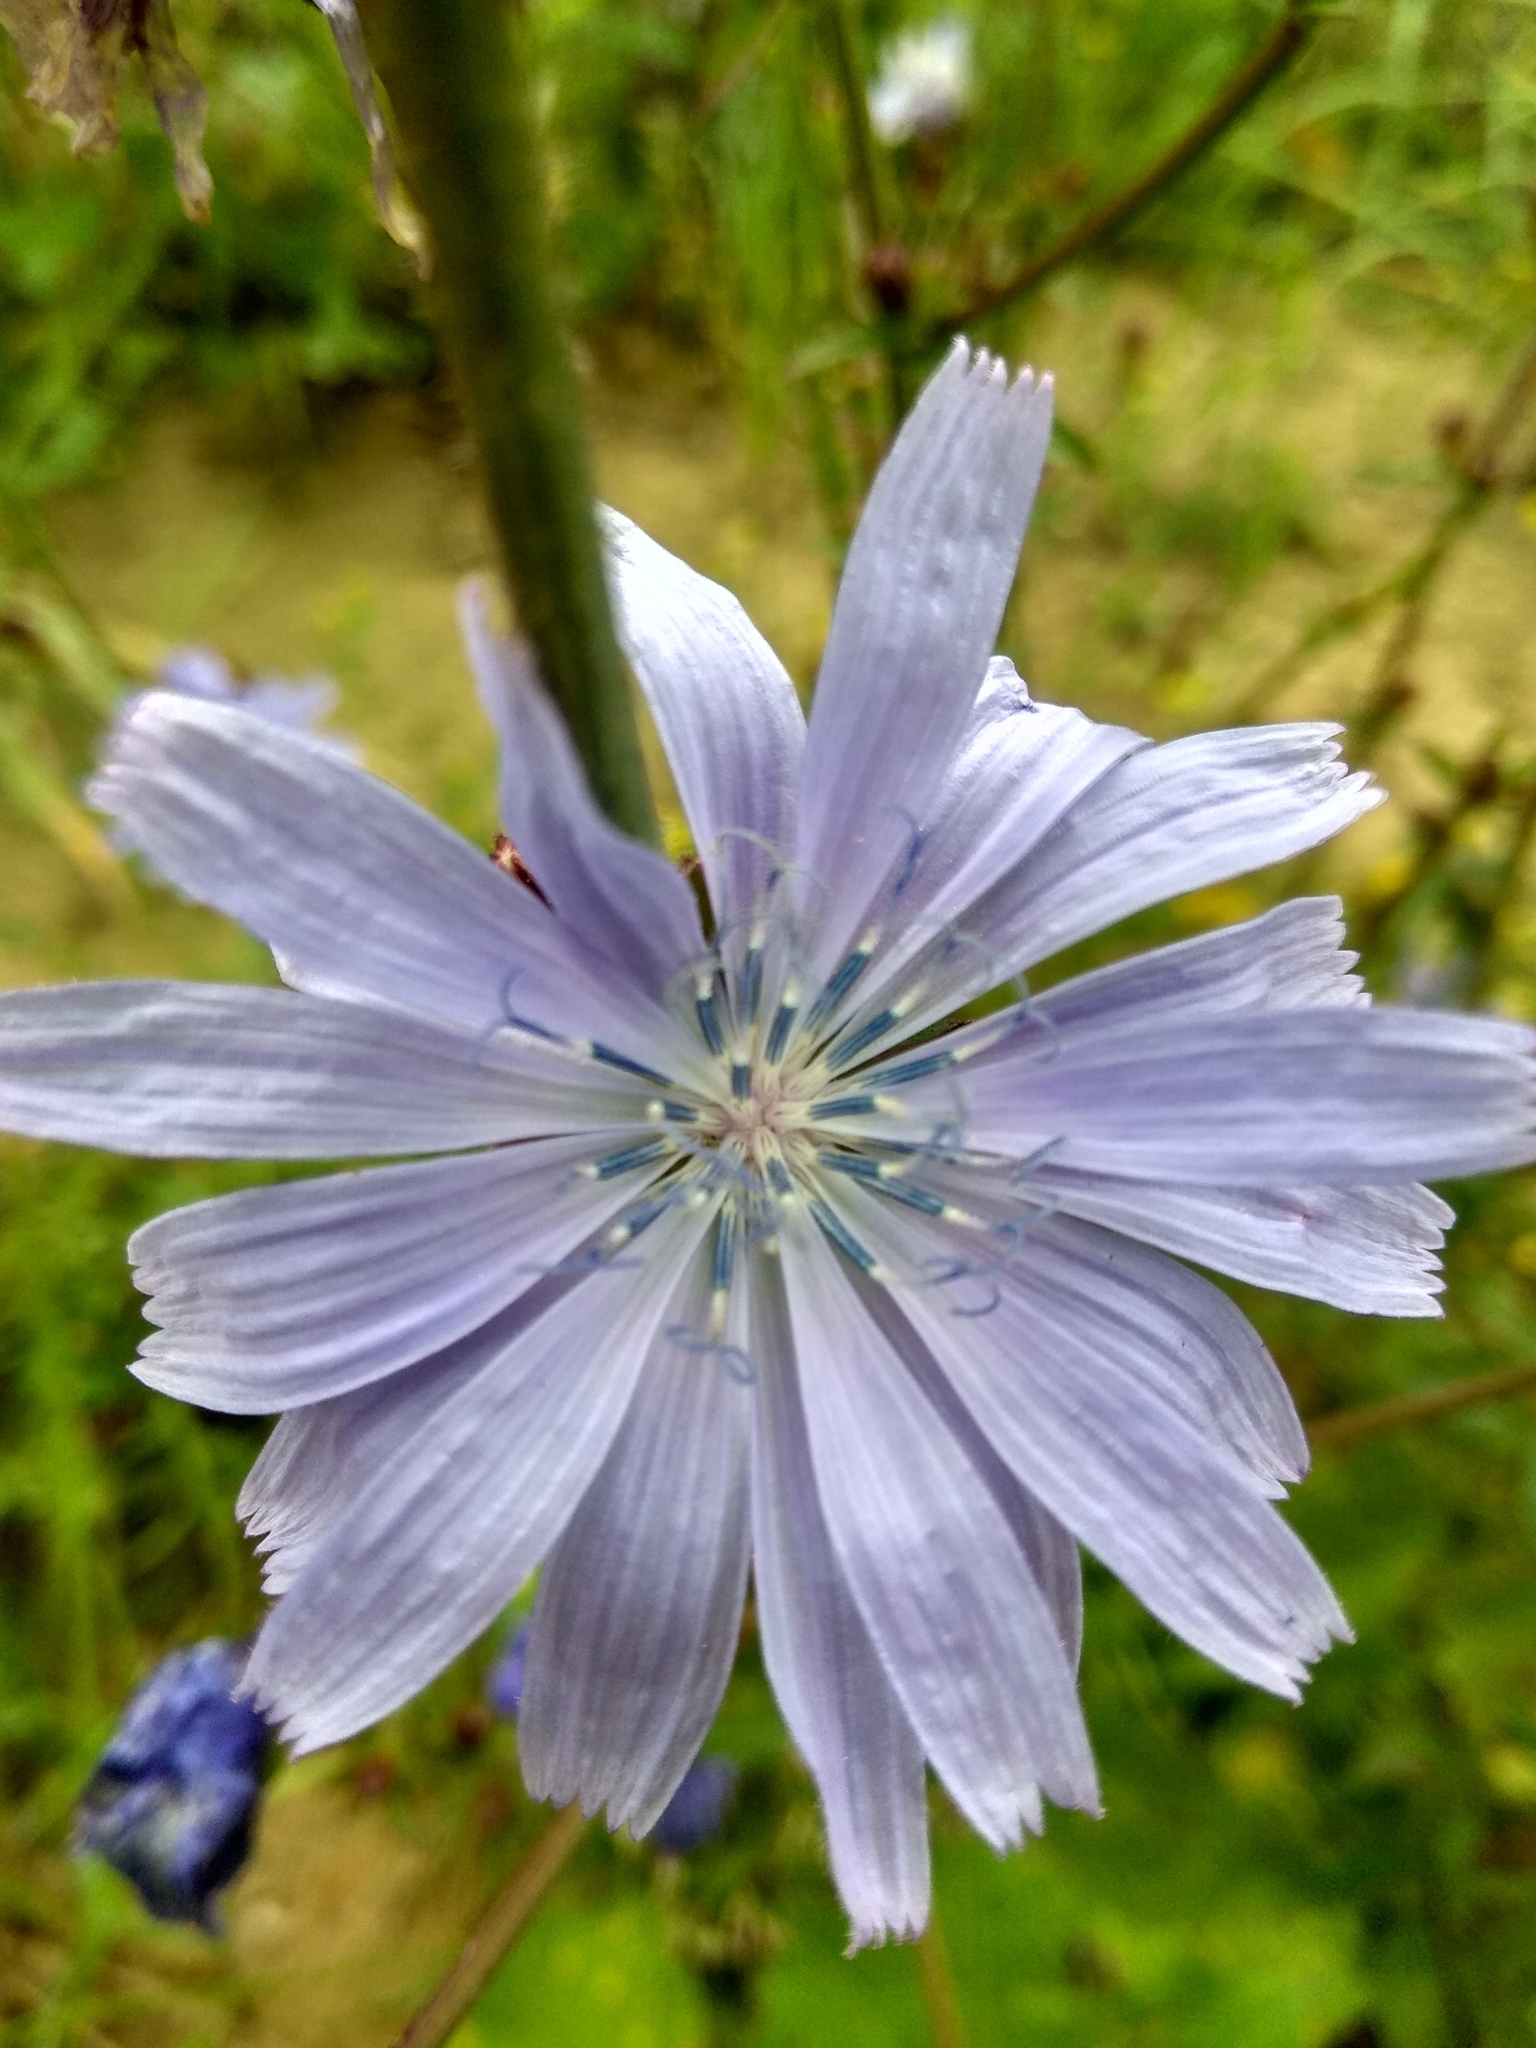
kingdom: Plantae
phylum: Tracheophyta
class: Magnoliopsida
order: Asterales
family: Asteraceae
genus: Cichorium
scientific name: Cichorium intybus
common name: Chicory
